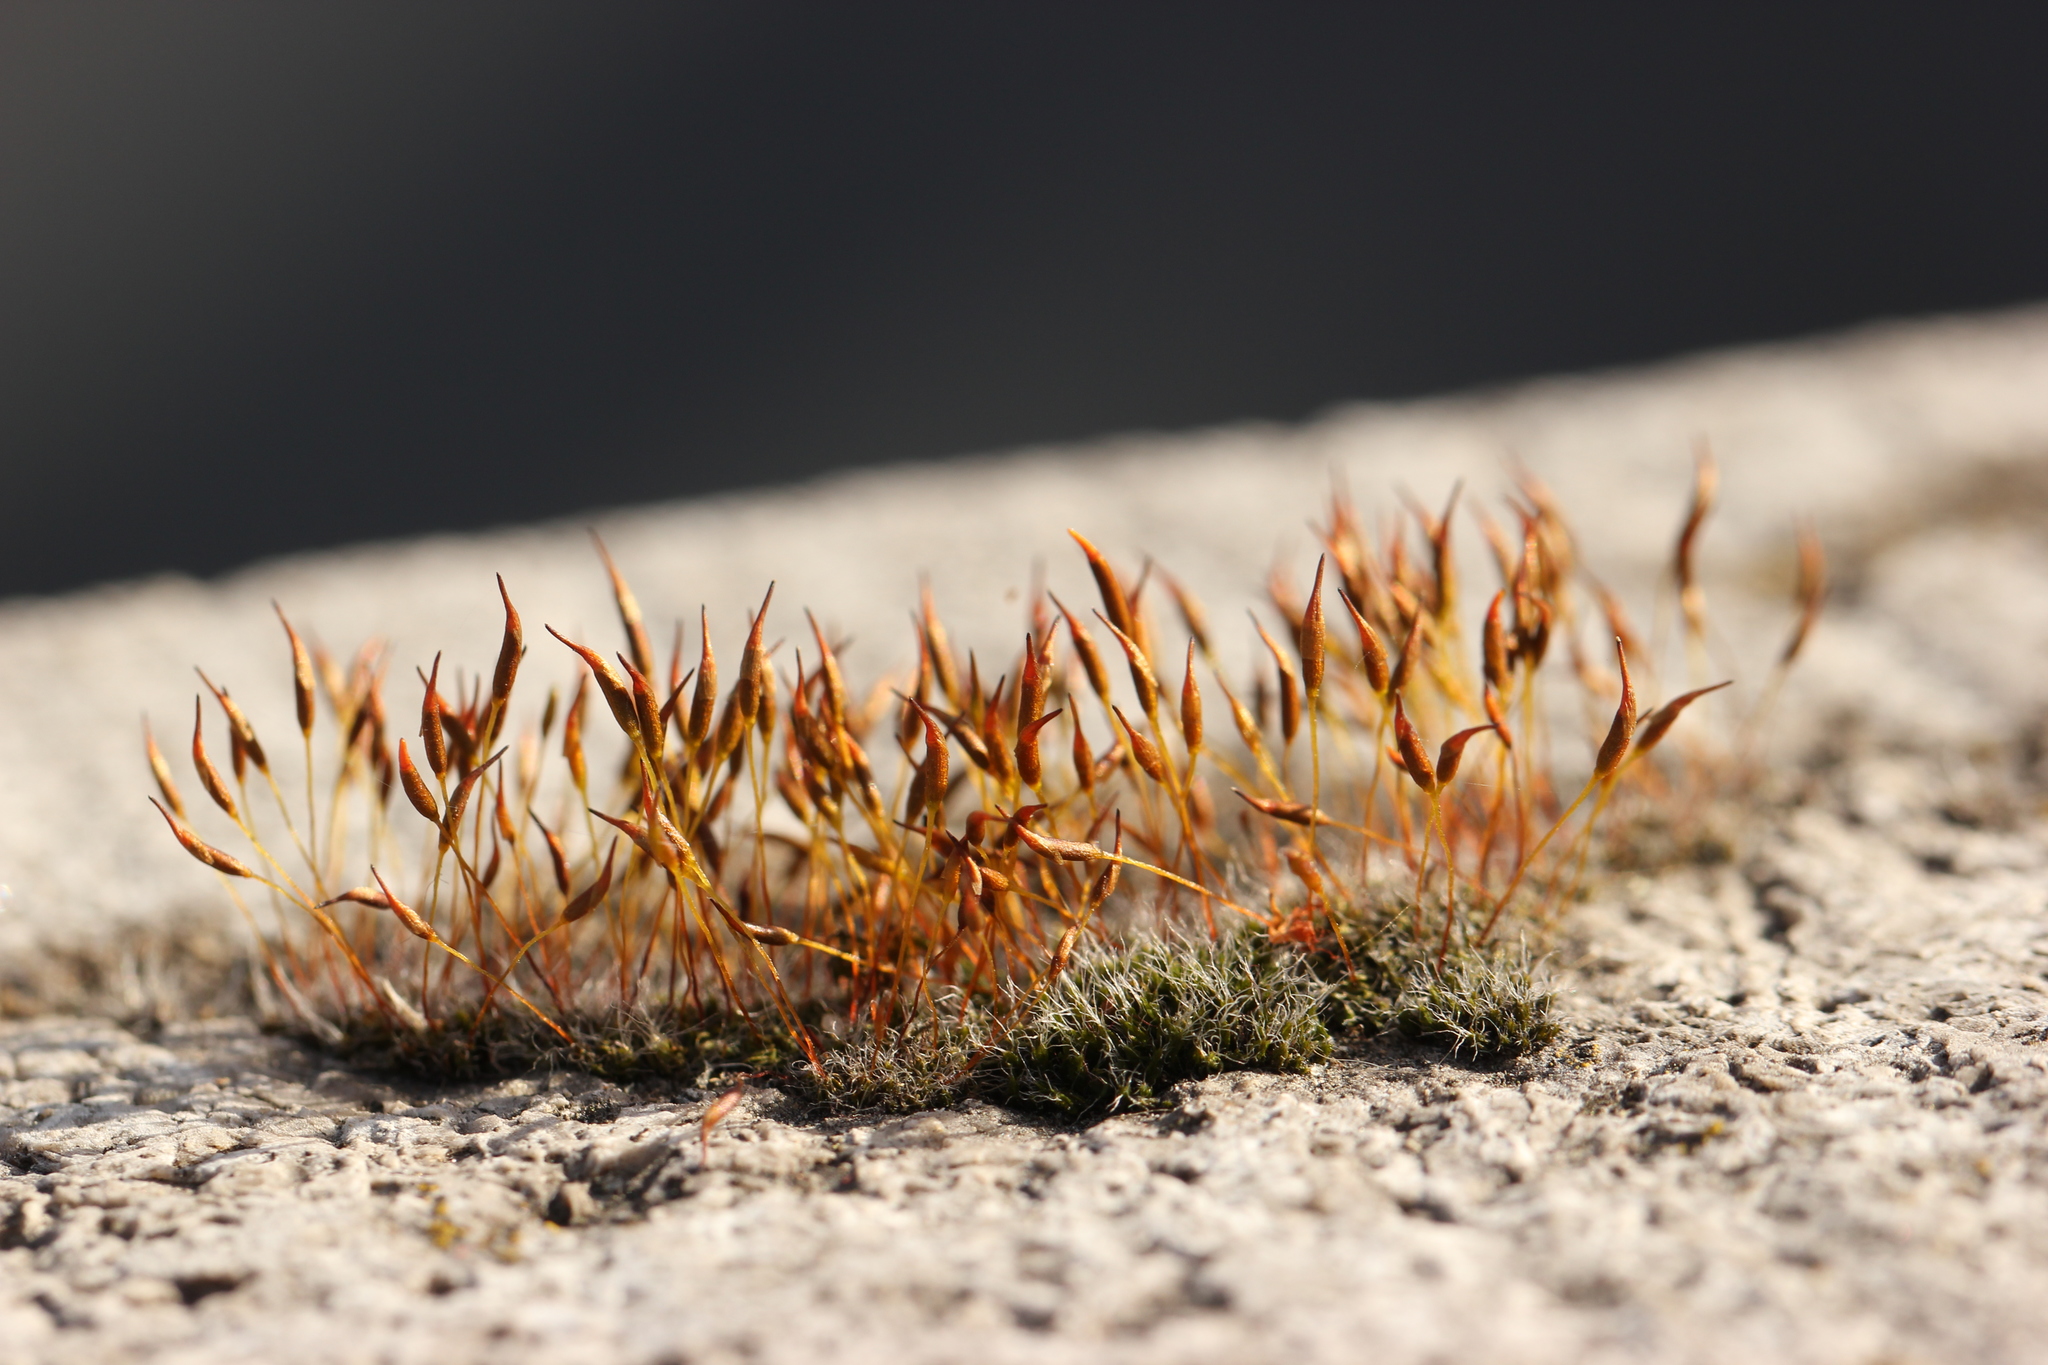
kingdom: Plantae
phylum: Bryophyta
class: Bryopsida
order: Pottiales
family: Pottiaceae
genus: Tortula
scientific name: Tortula muralis
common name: Wall screw-moss
